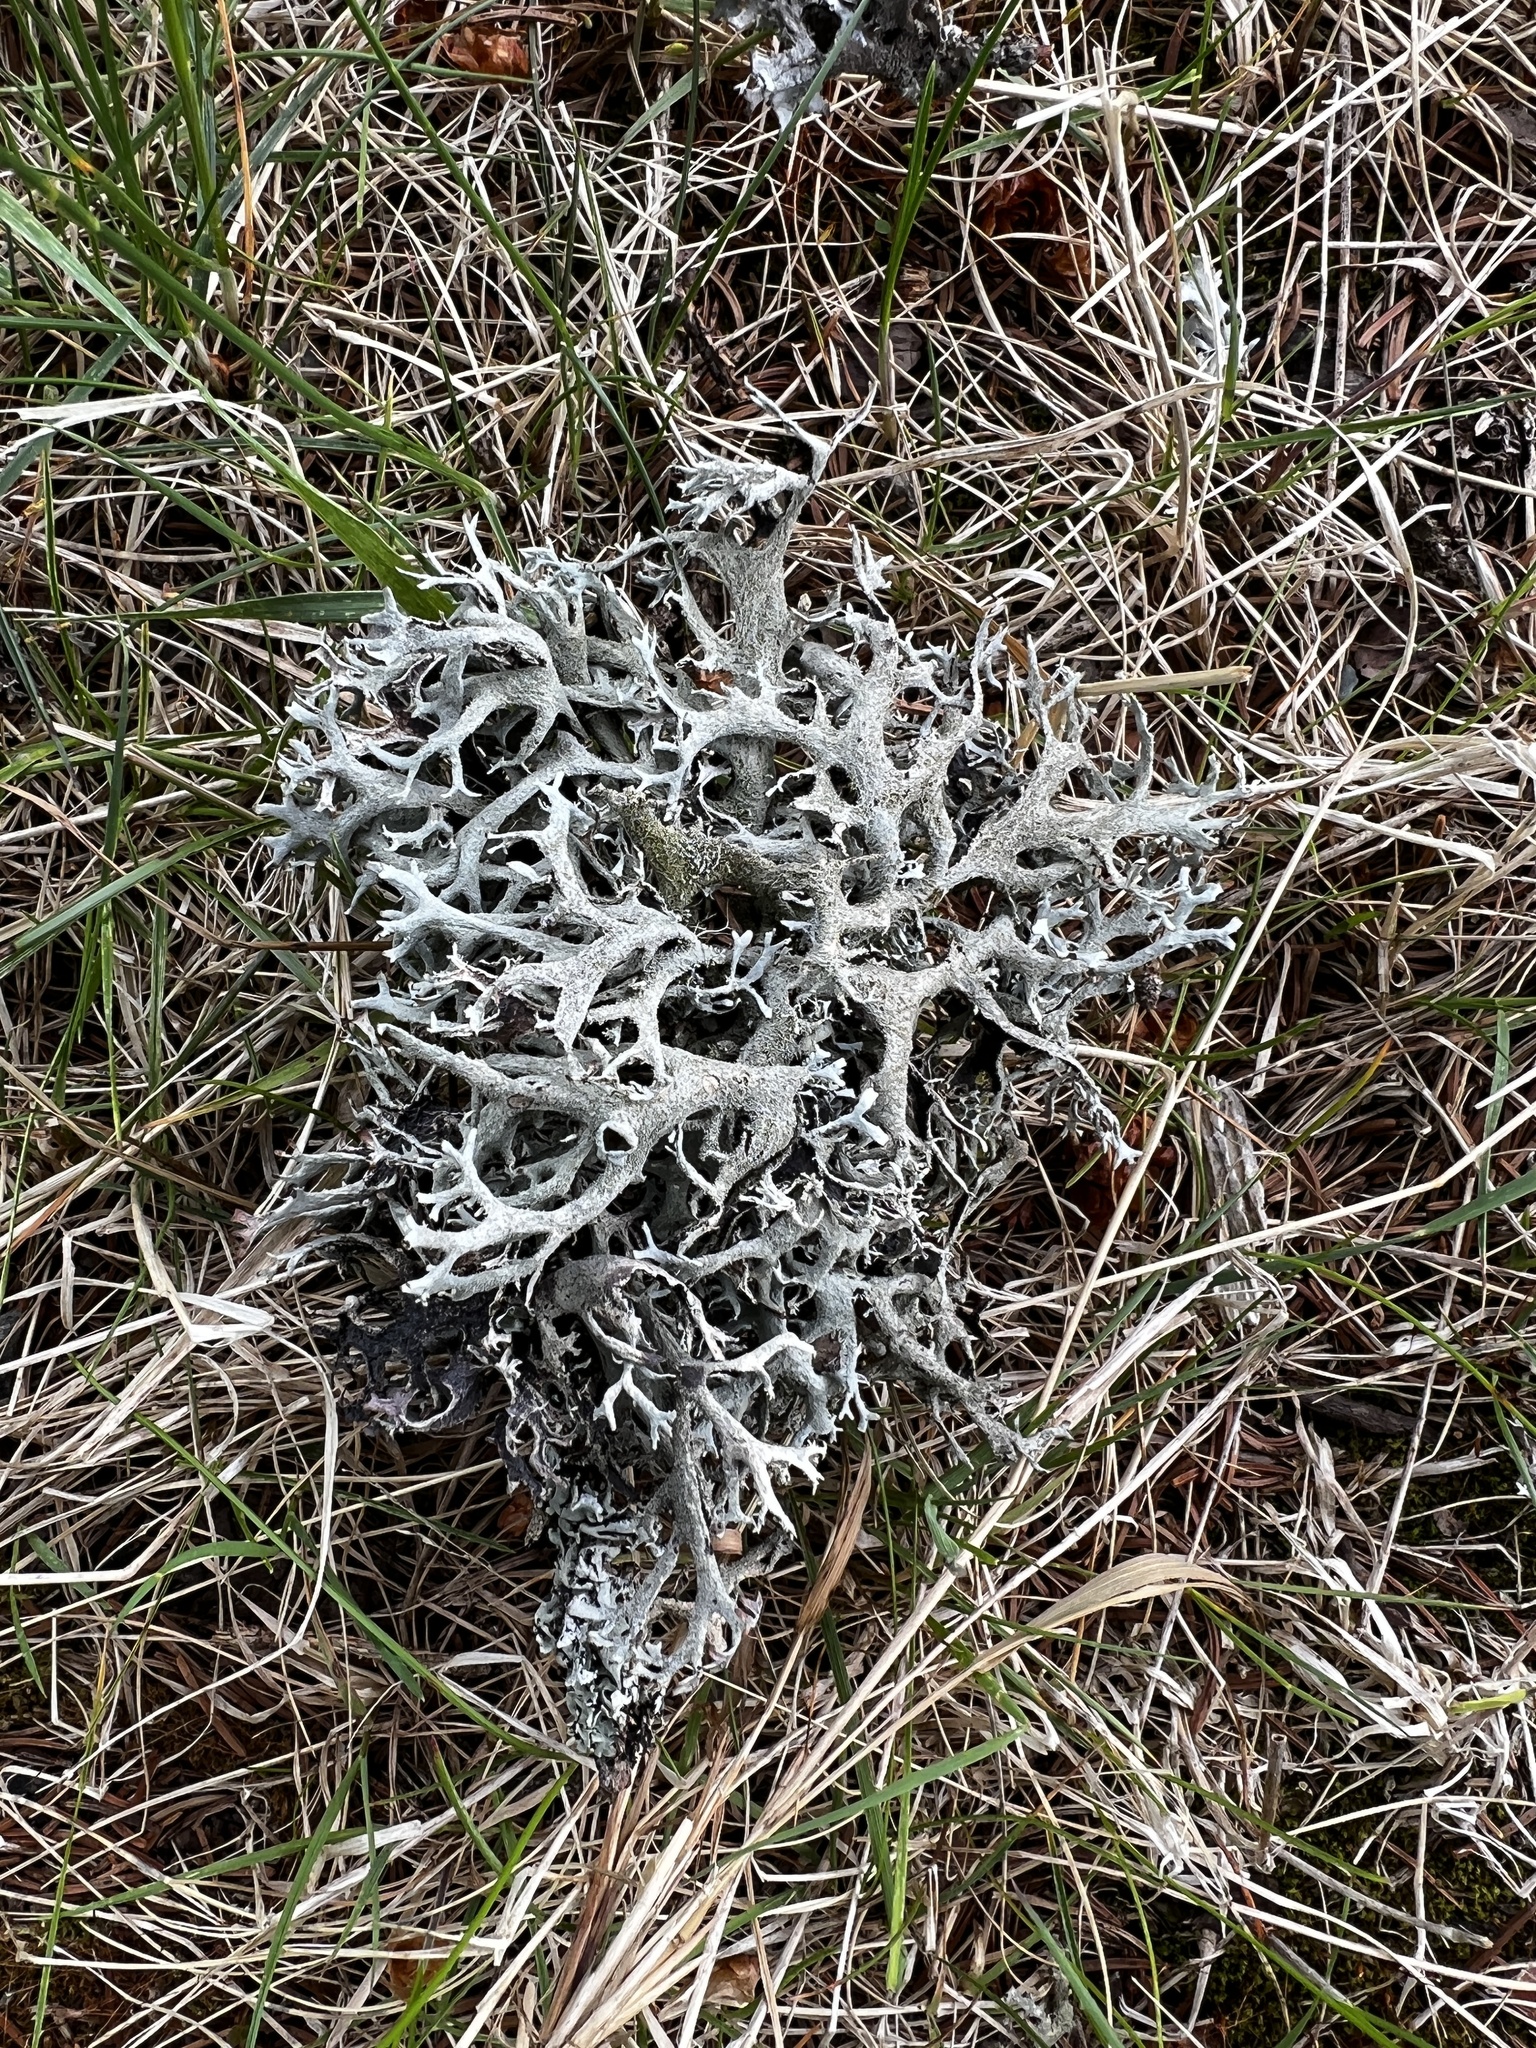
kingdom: Fungi
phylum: Ascomycota
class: Lecanoromycetes
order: Lecanorales
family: Parmeliaceae
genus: Pseudevernia
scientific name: Pseudevernia furfuracea
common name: Tree moss
